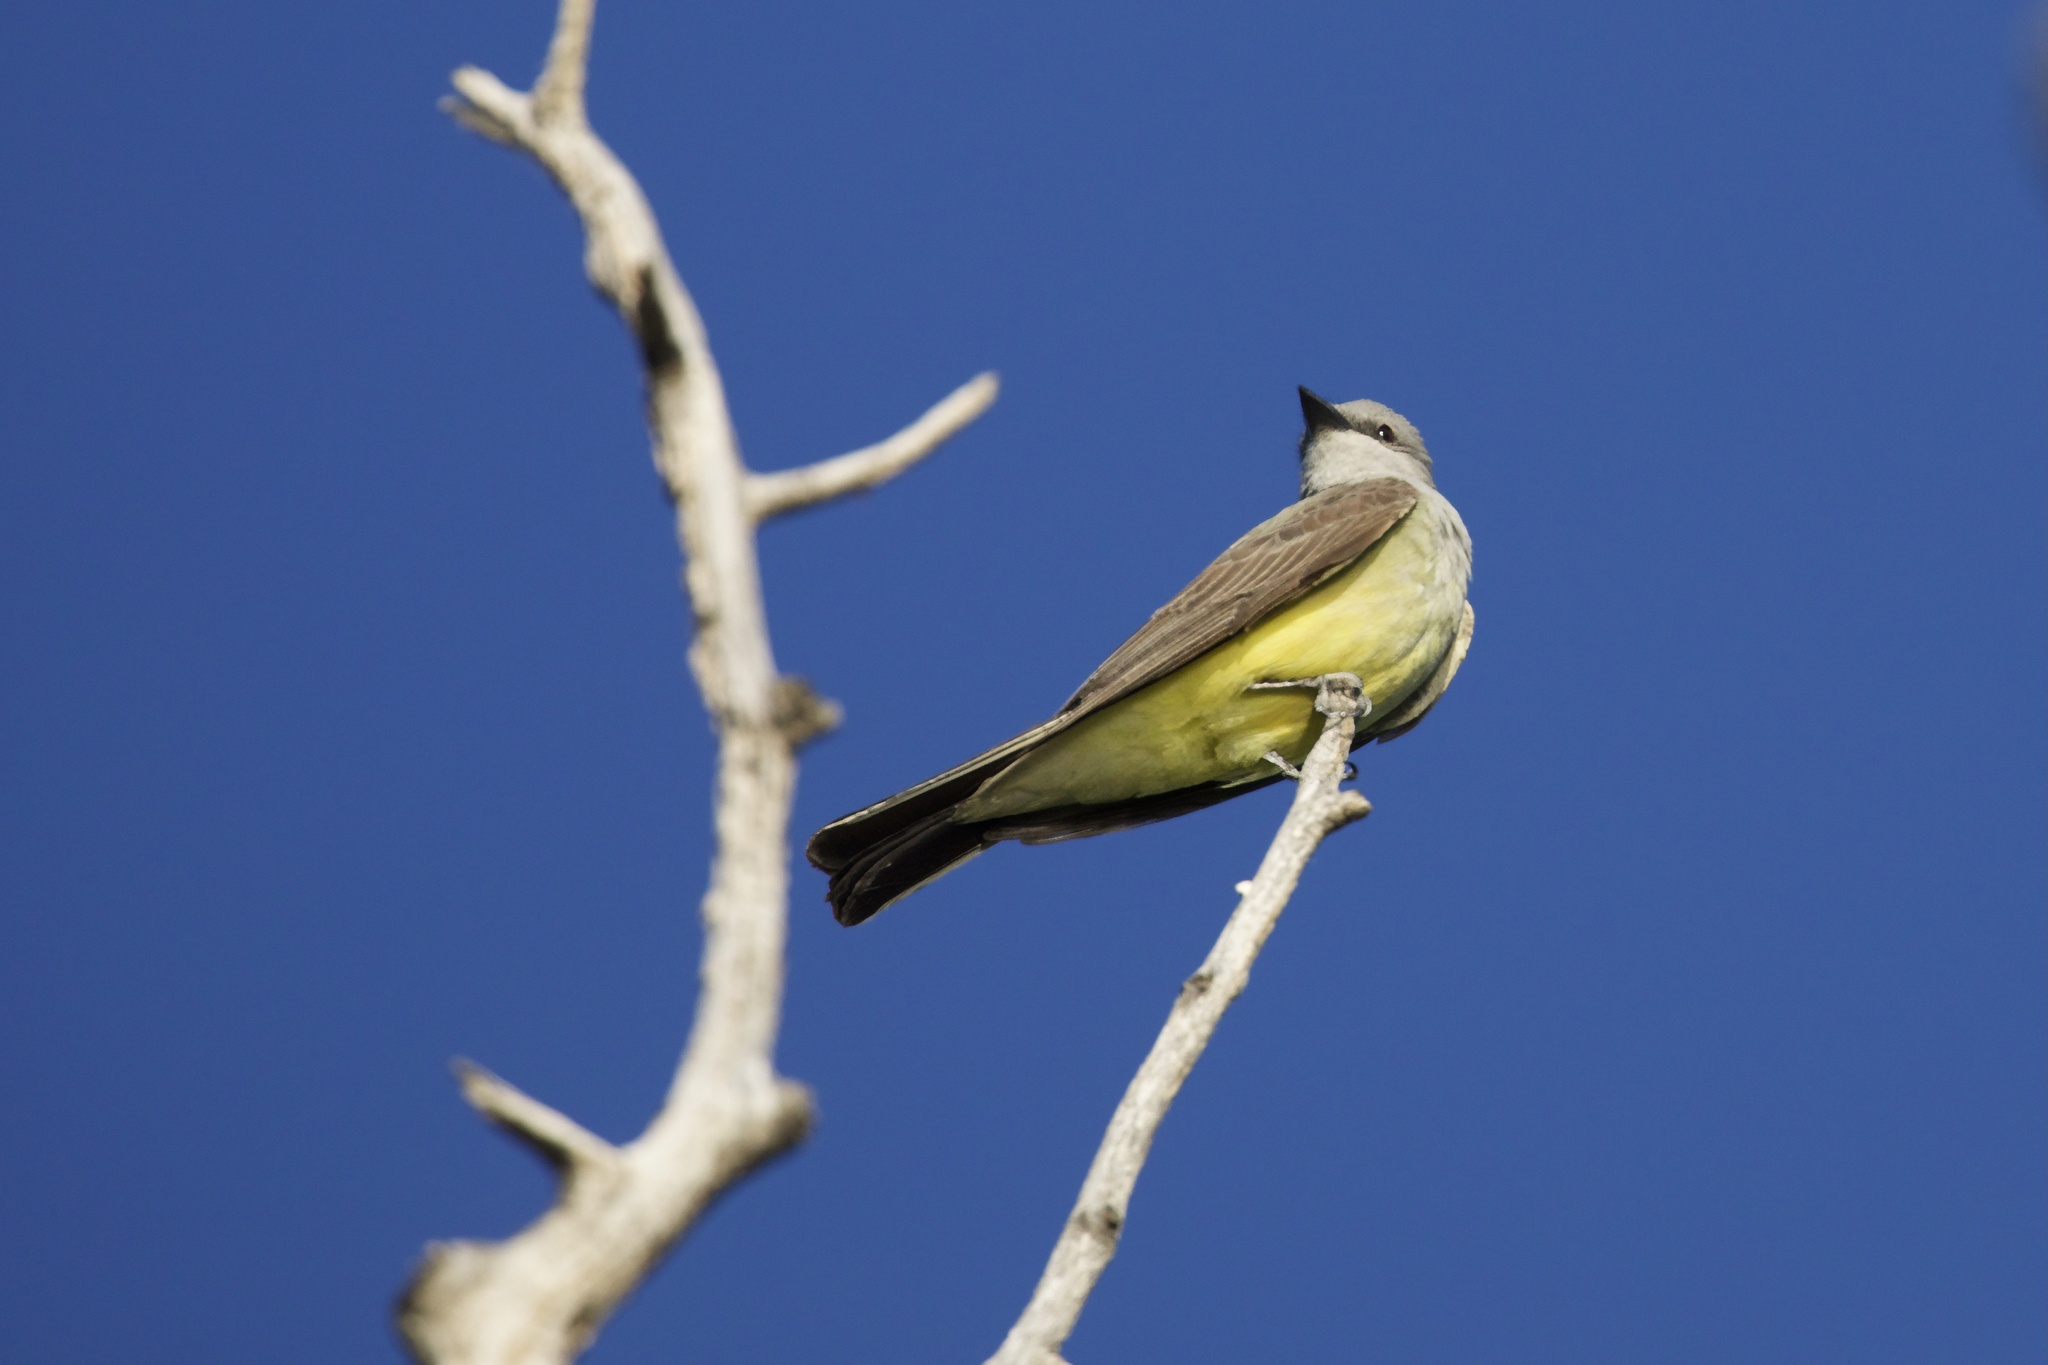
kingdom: Animalia
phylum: Chordata
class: Aves
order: Passeriformes
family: Tyrannidae
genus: Tyrannus
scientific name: Tyrannus verticalis
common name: Western kingbird
